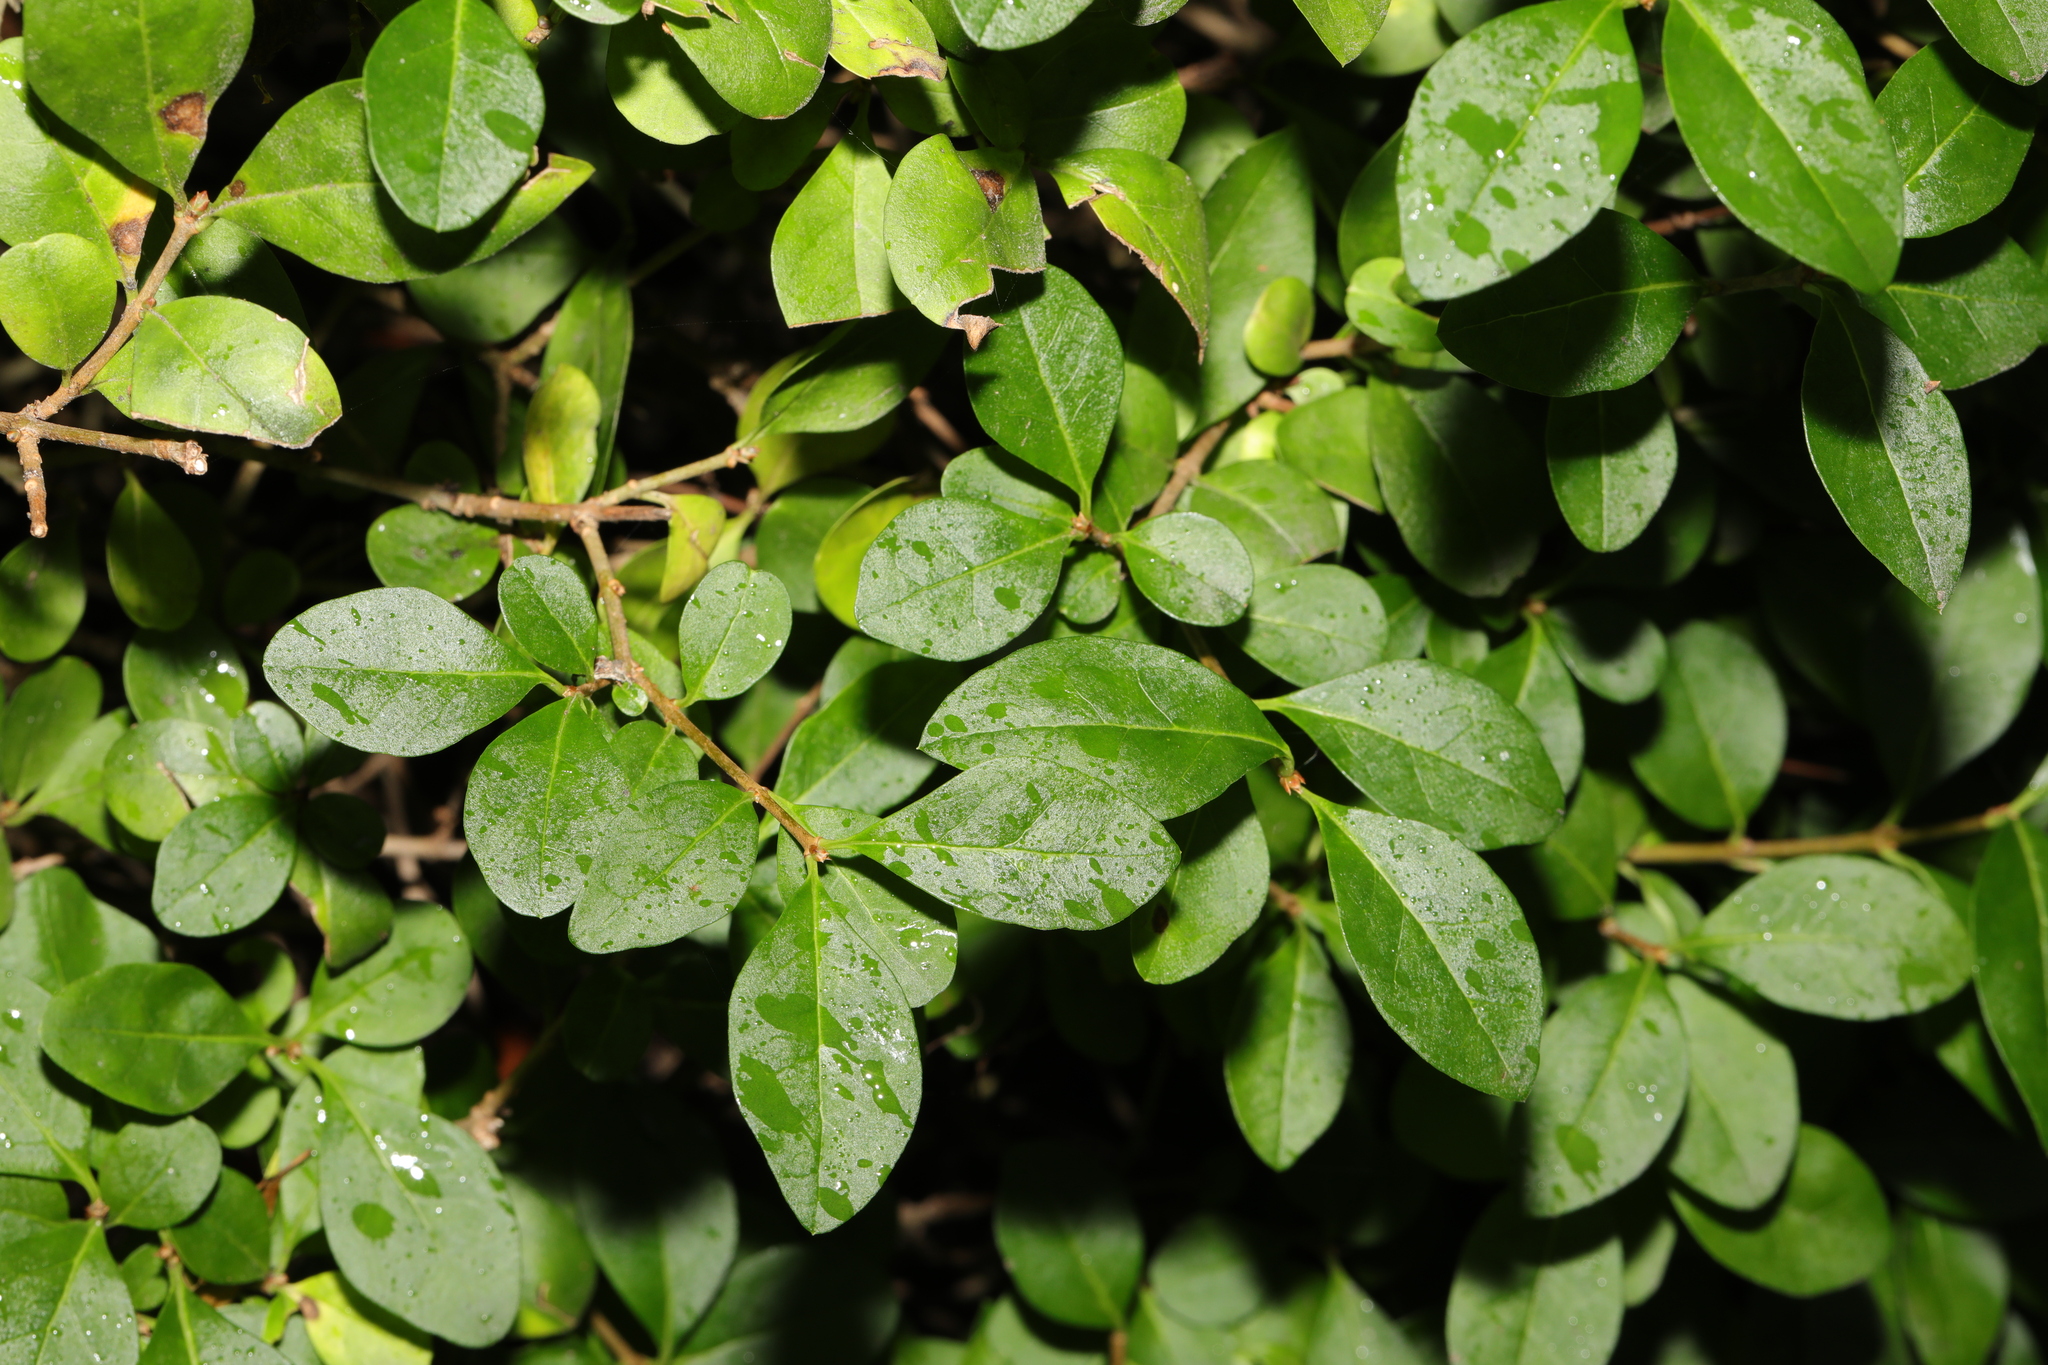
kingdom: Plantae
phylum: Tracheophyta
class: Magnoliopsida
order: Lamiales
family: Oleaceae
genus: Ligustrum
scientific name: Ligustrum ovalifolium
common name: California privet
